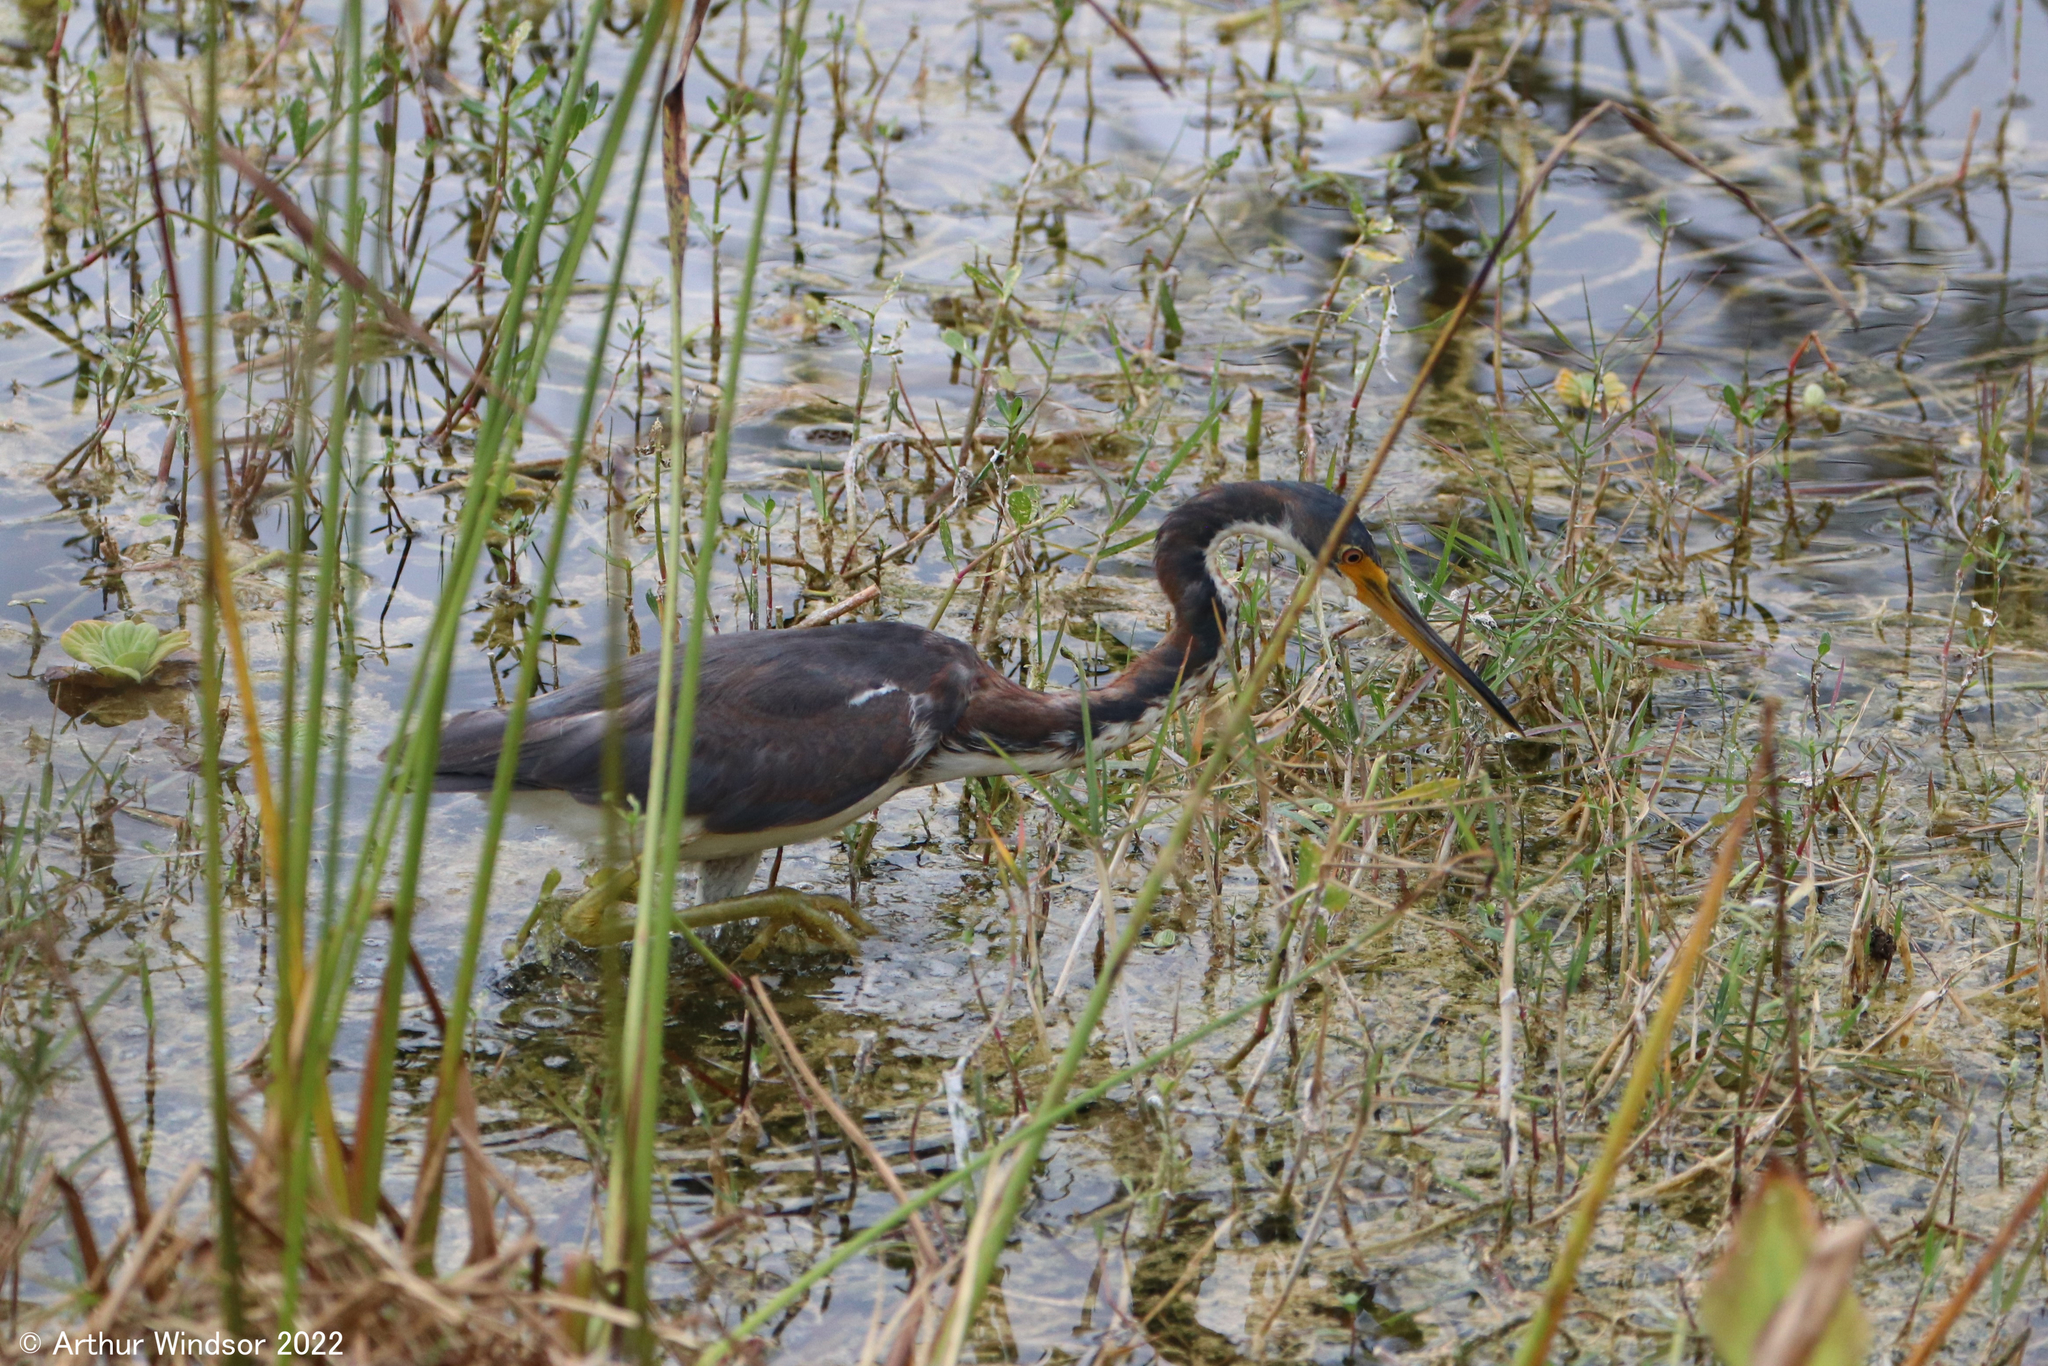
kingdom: Animalia
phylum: Chordata
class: Aves
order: Pelecaniformes
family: Ardeidae
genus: Egretta
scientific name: Egretta tricolor
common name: Tricolored heron
